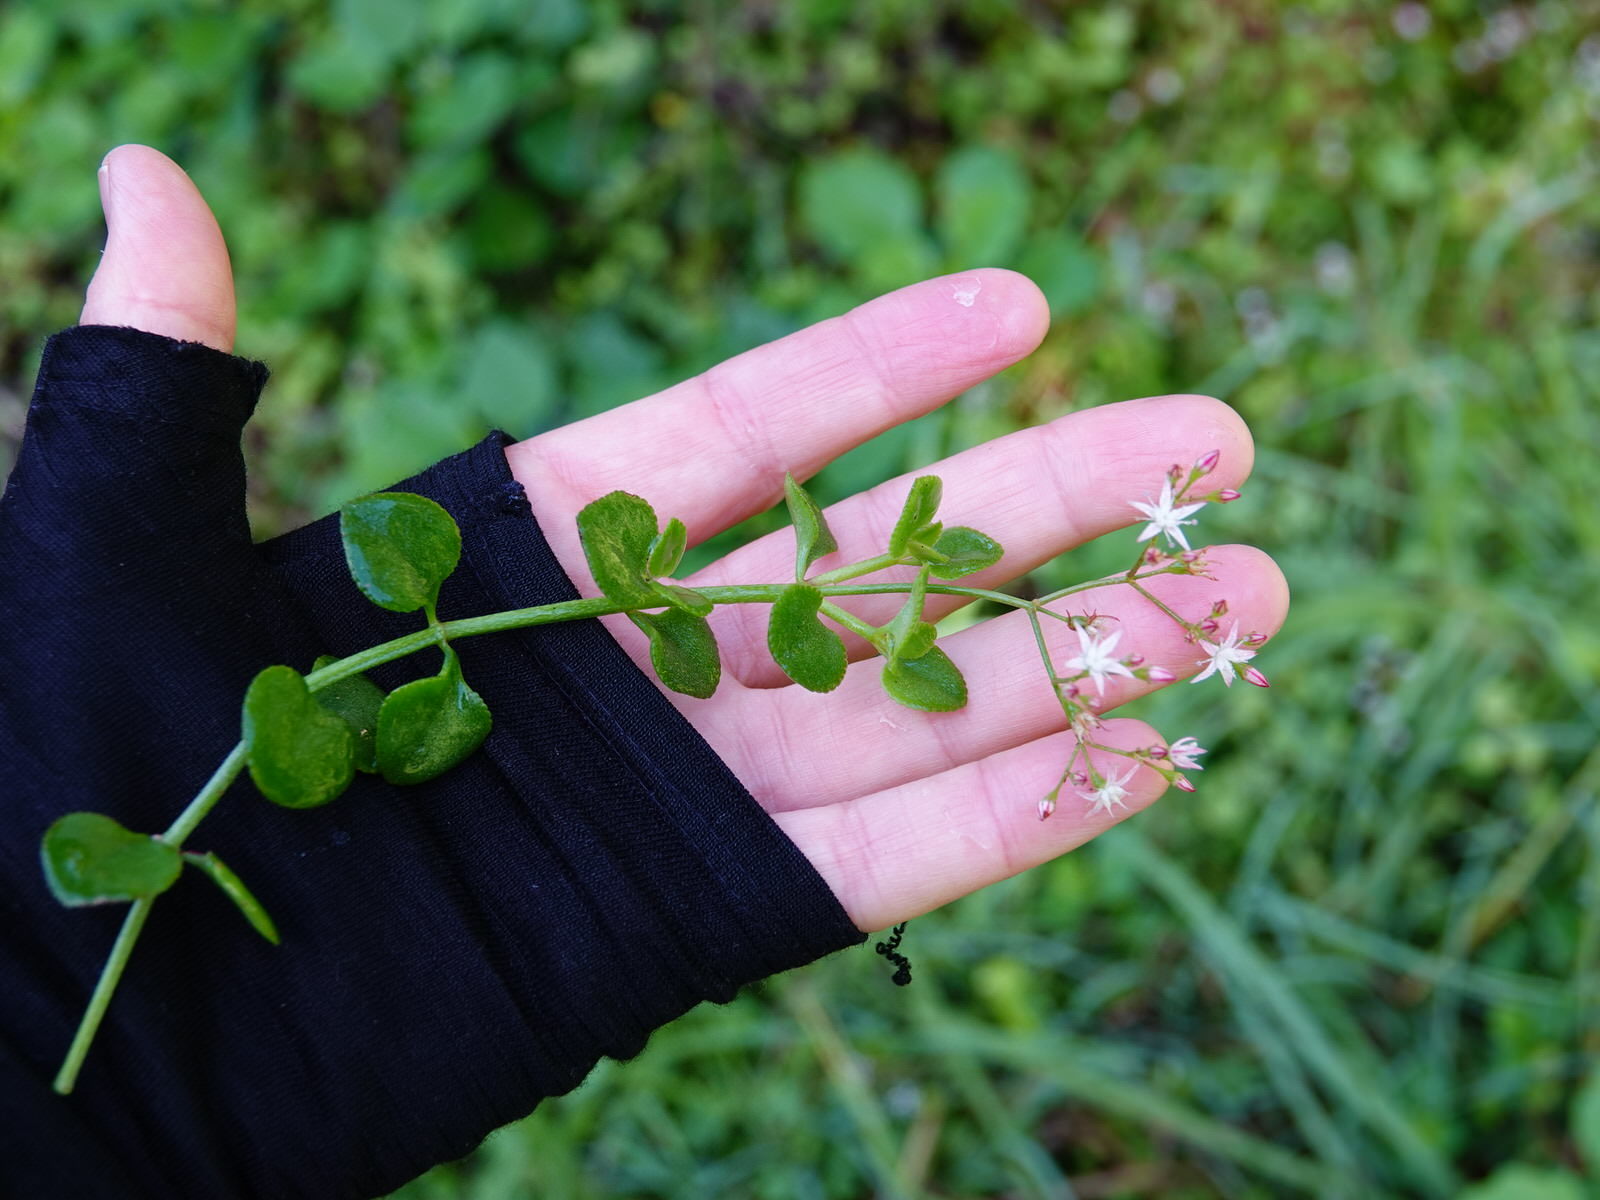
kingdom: Plantae
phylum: Tracheophyta
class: Magnoliopsida
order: Saxifragales
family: Crassulaceae
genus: Crassula
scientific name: Crassula multicava
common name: Cape province pygmyweed
